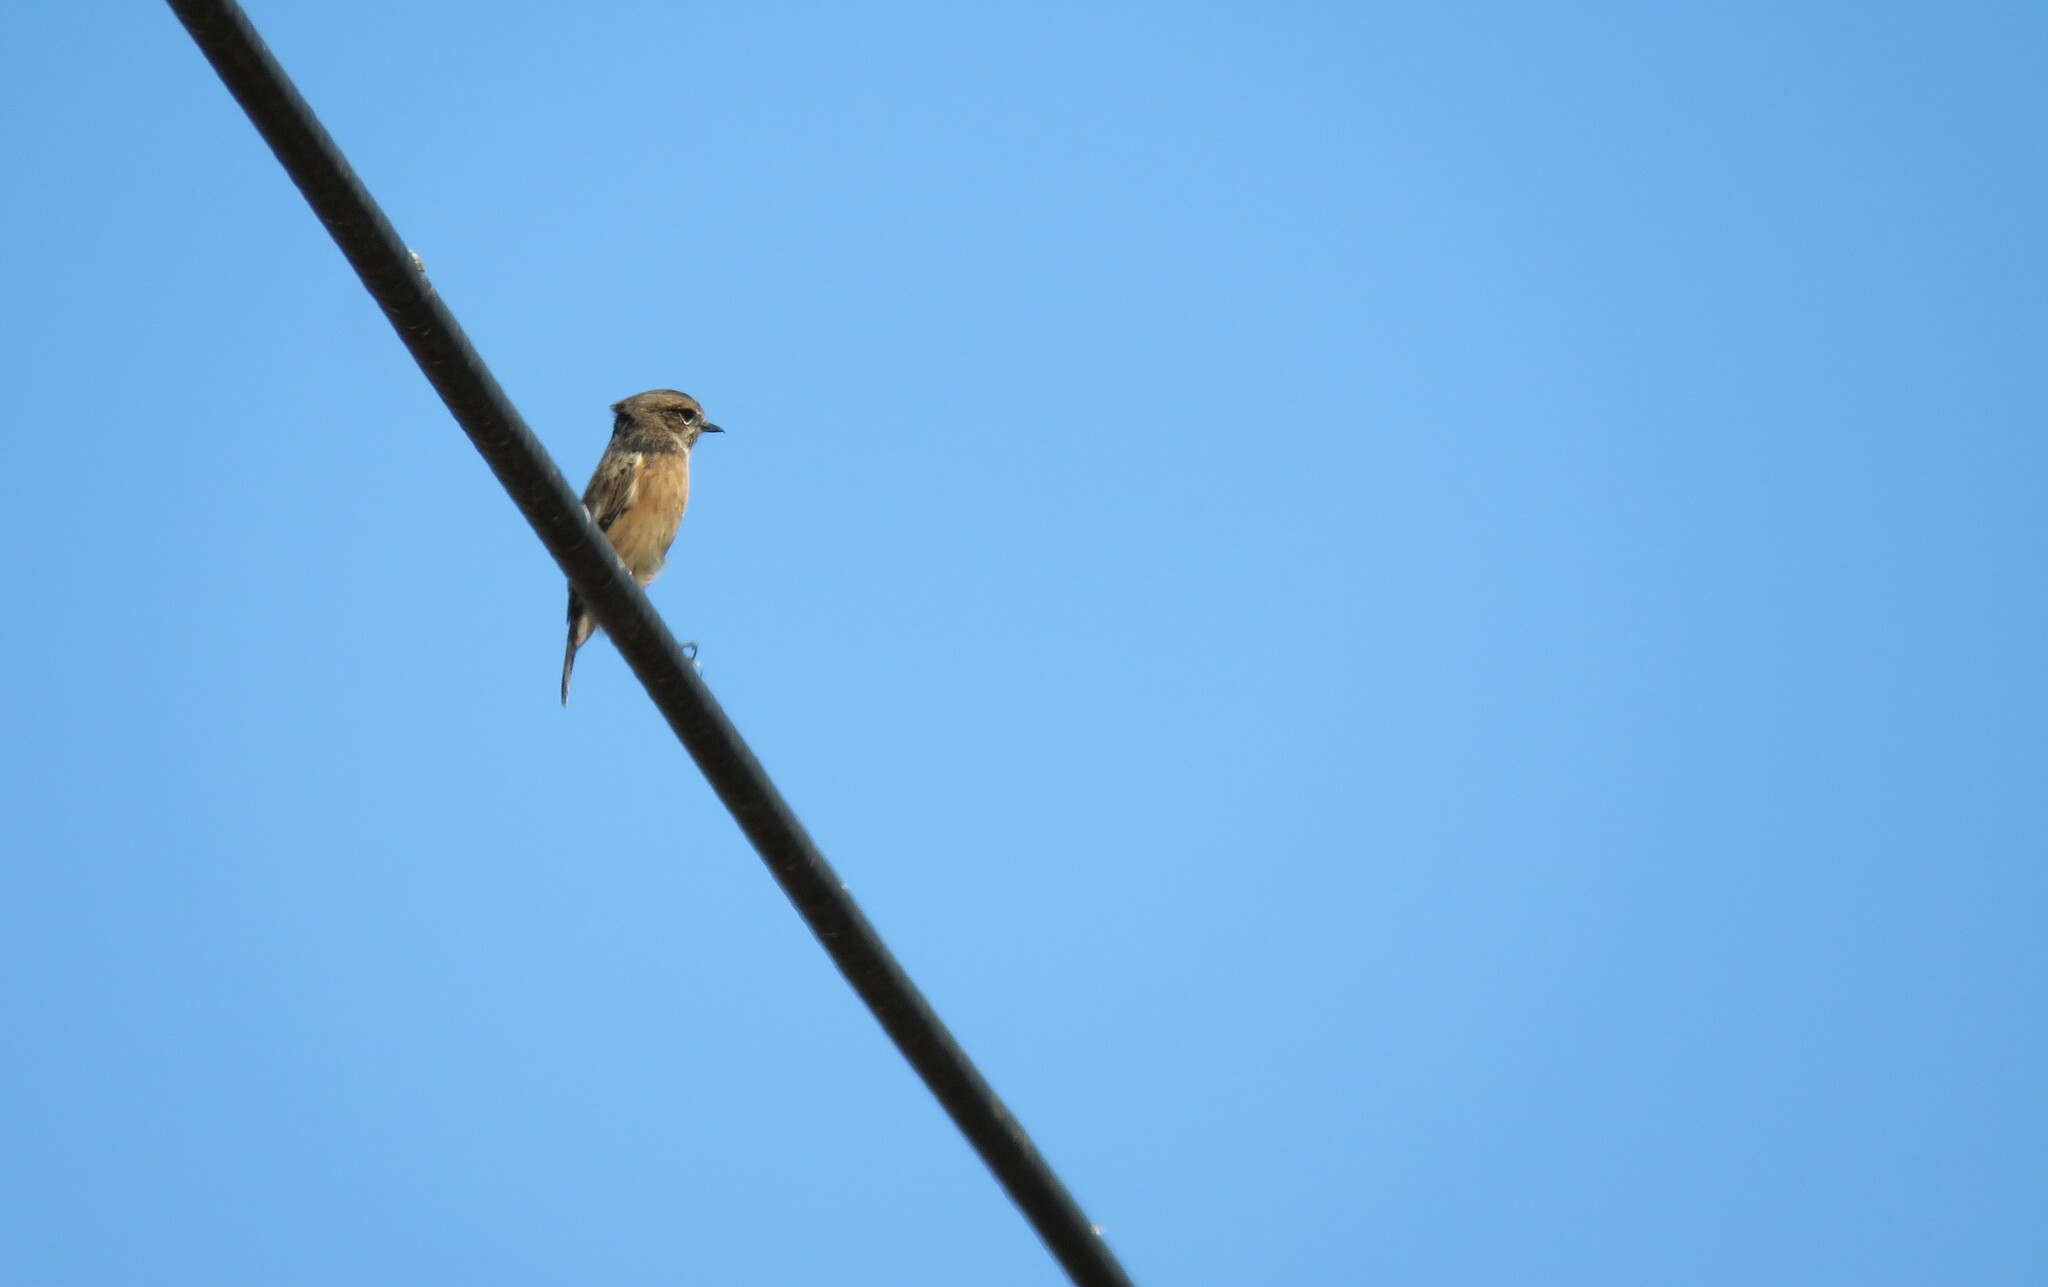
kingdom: Animalia
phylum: Chordata
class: Aves
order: Passeriformes
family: Muscicapidae
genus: Saxicola
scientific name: Saxicola rubicola
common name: European stonechat
